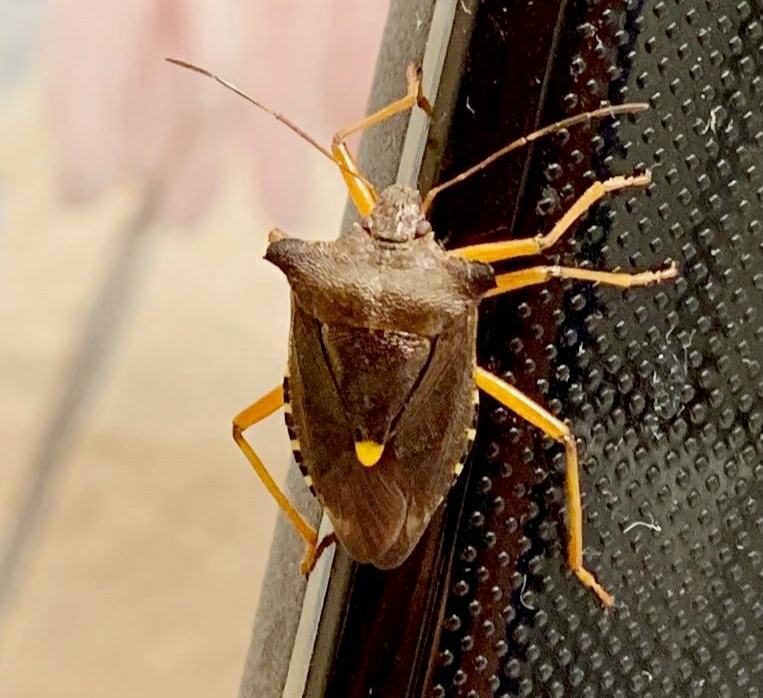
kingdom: Animalia
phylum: Arthropoda
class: Insecta
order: Hemiptera
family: Pentatomidae
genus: Pentatoma
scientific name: Pentatoma rufipes
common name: Forest bug
